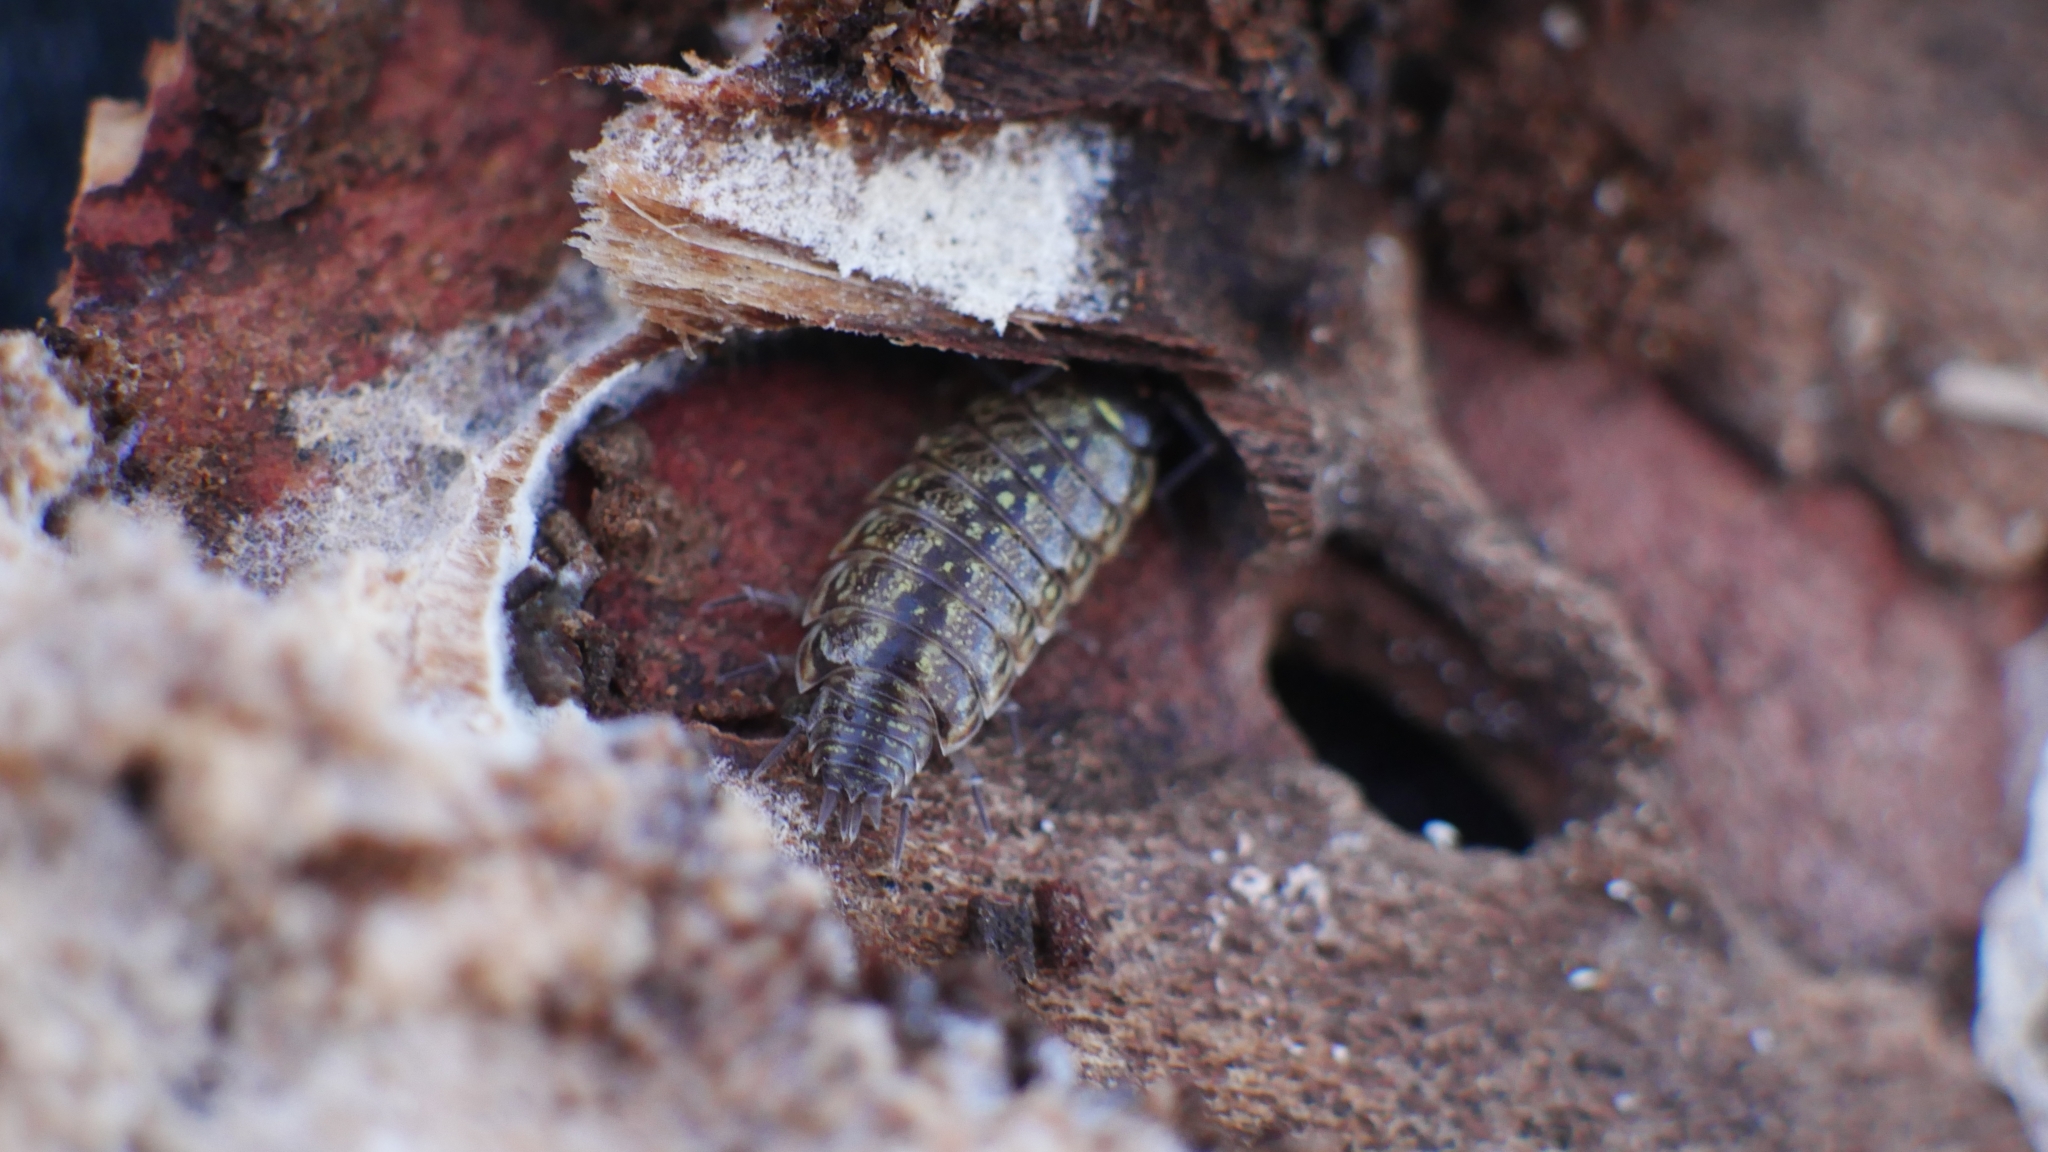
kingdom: Animalia
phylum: Arthropoda
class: Malacostraca
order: Isopoda
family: Philosciidae
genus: Philoscia
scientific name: Philoscia muscorum
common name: Common striped woodlouse
